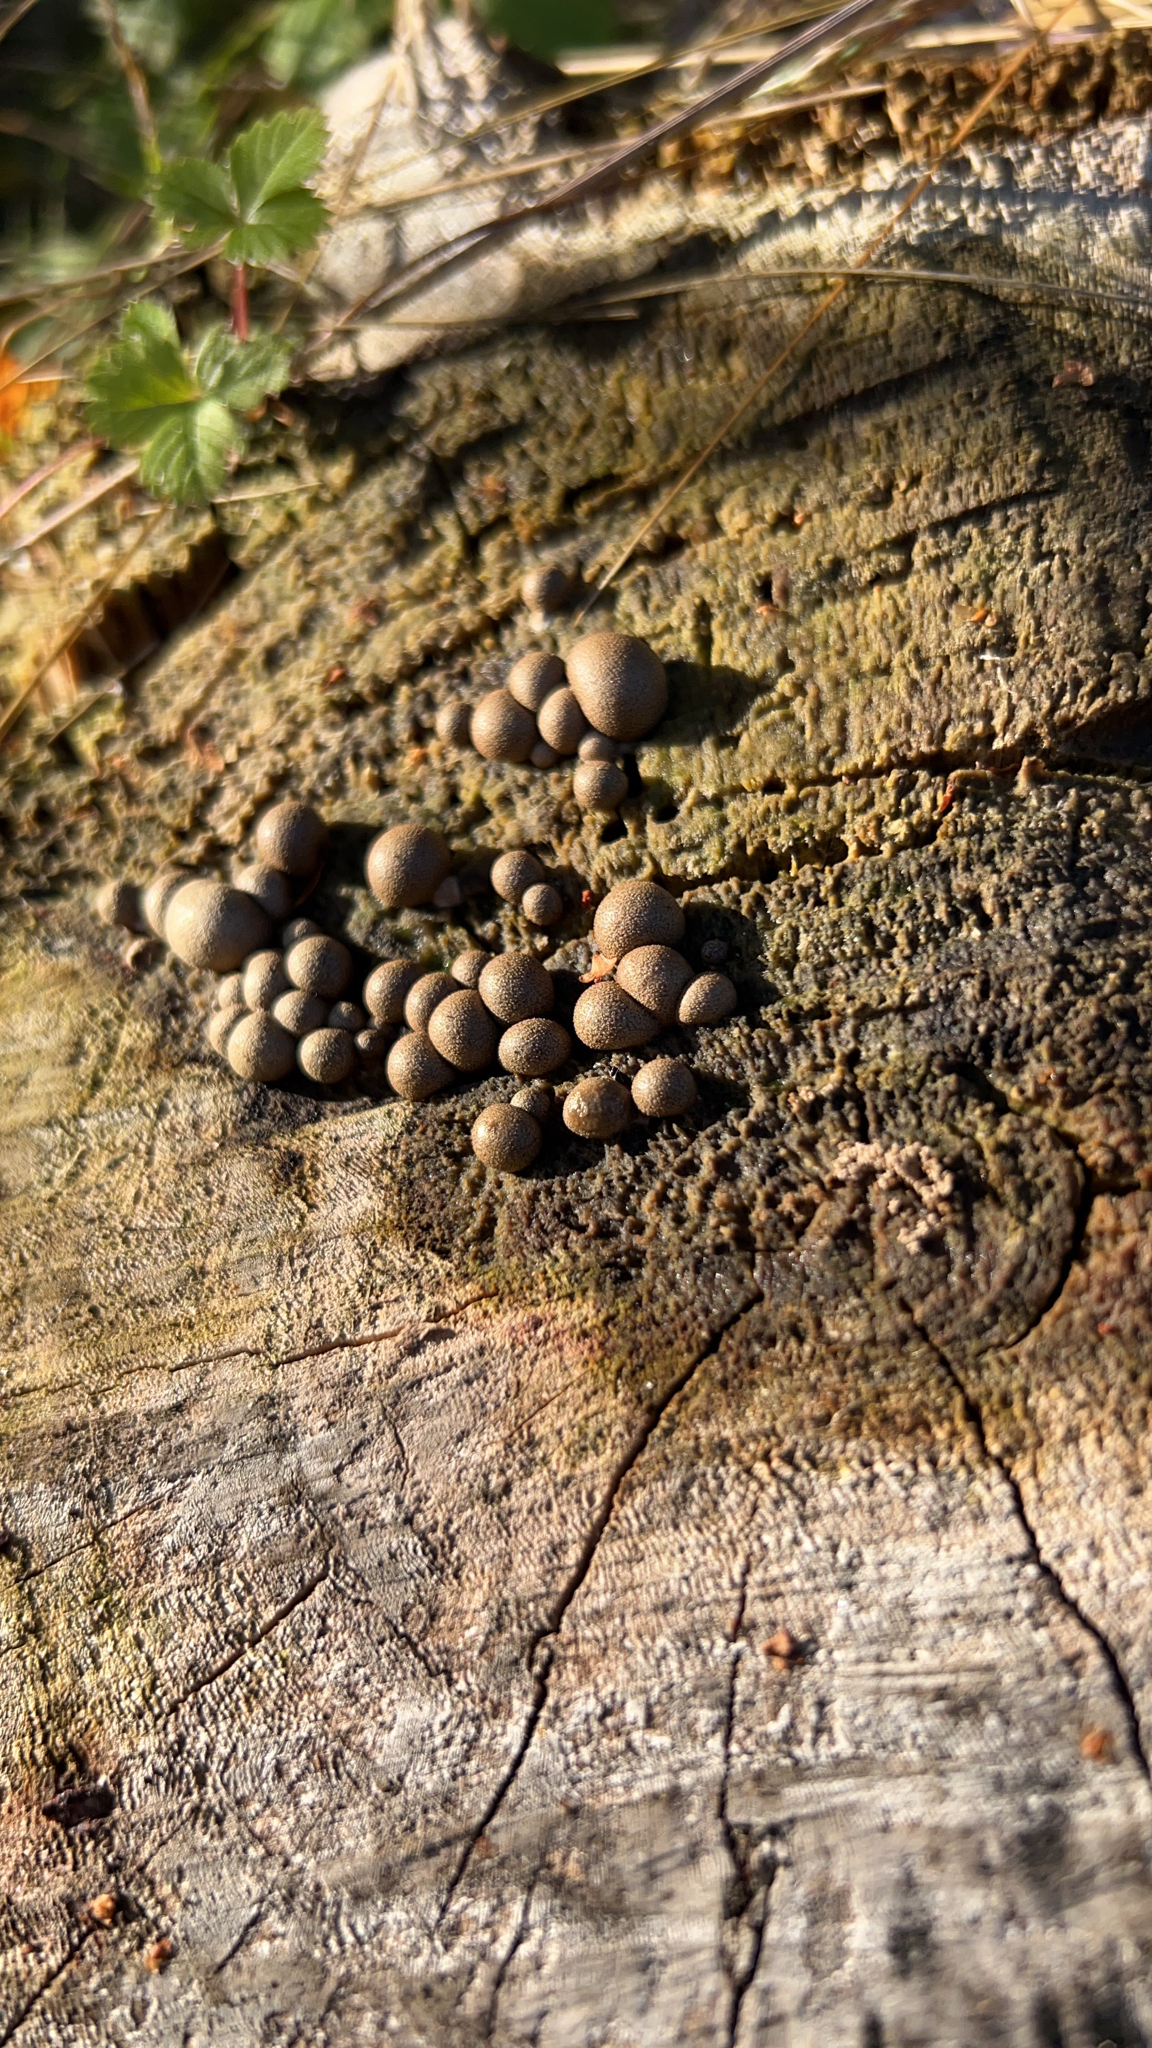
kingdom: Protozoa
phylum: Mycetozoa
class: Myxomycetes
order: Cribrariales
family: Tubiferaceae
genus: Lycogala
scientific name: Lycogala epidendrum
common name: Wolf's milk
